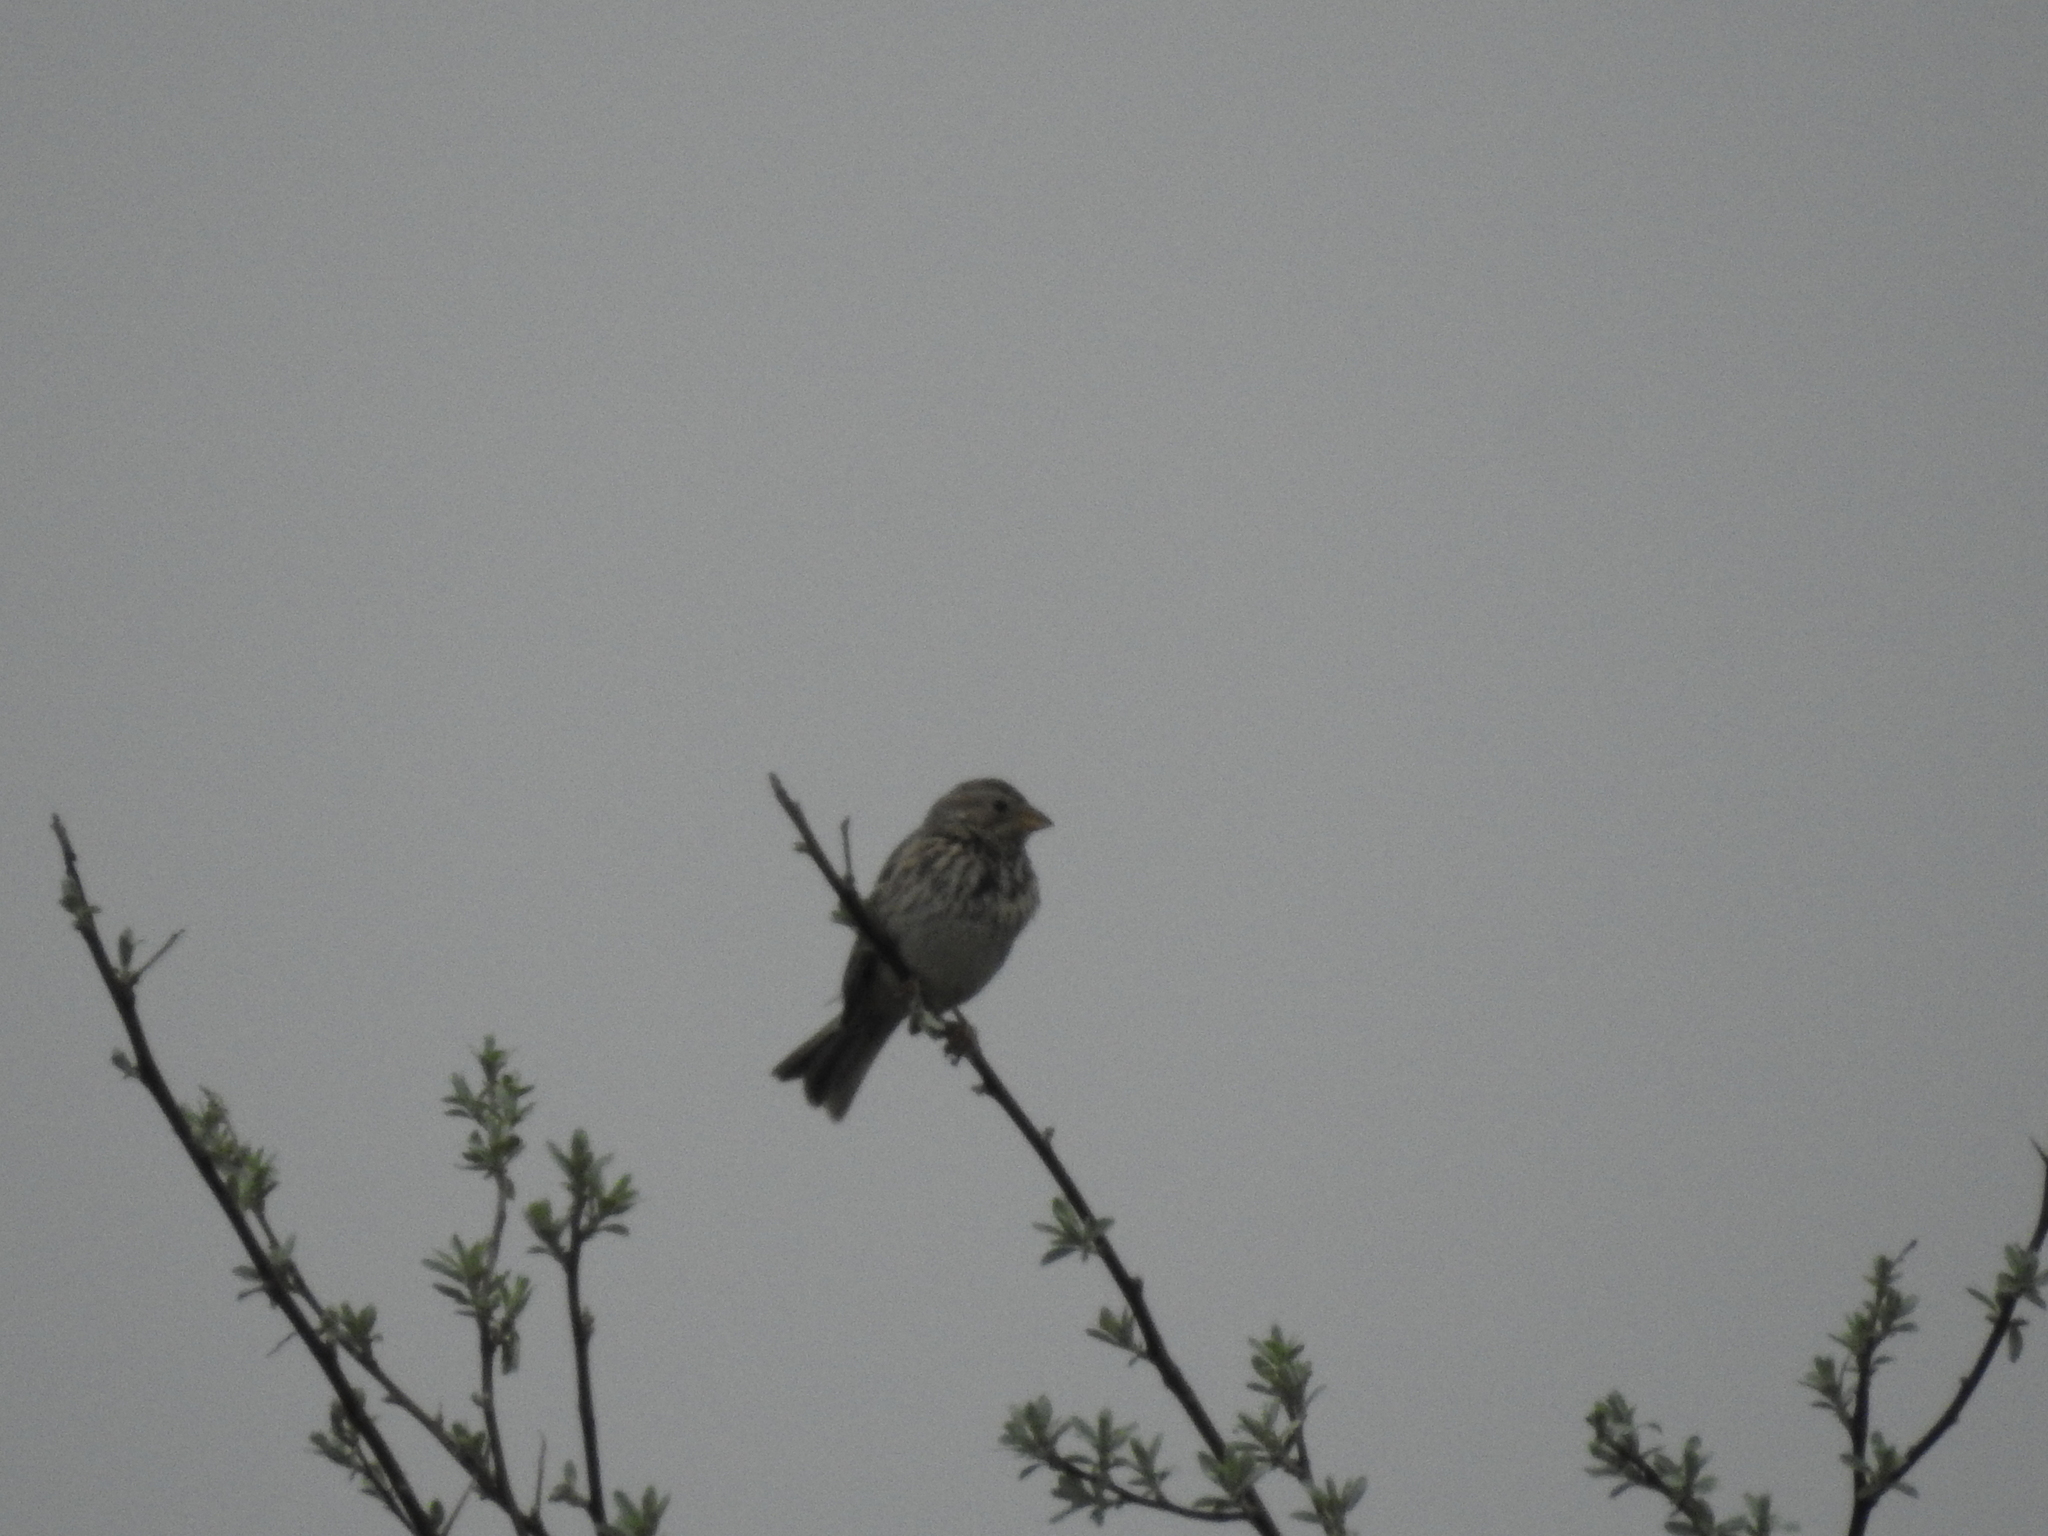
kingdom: Animalia
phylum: Chordata
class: Aves
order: Passeriformes
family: Emberizidae
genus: Emberiza
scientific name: Emberiza calandra
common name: Corn bunting
